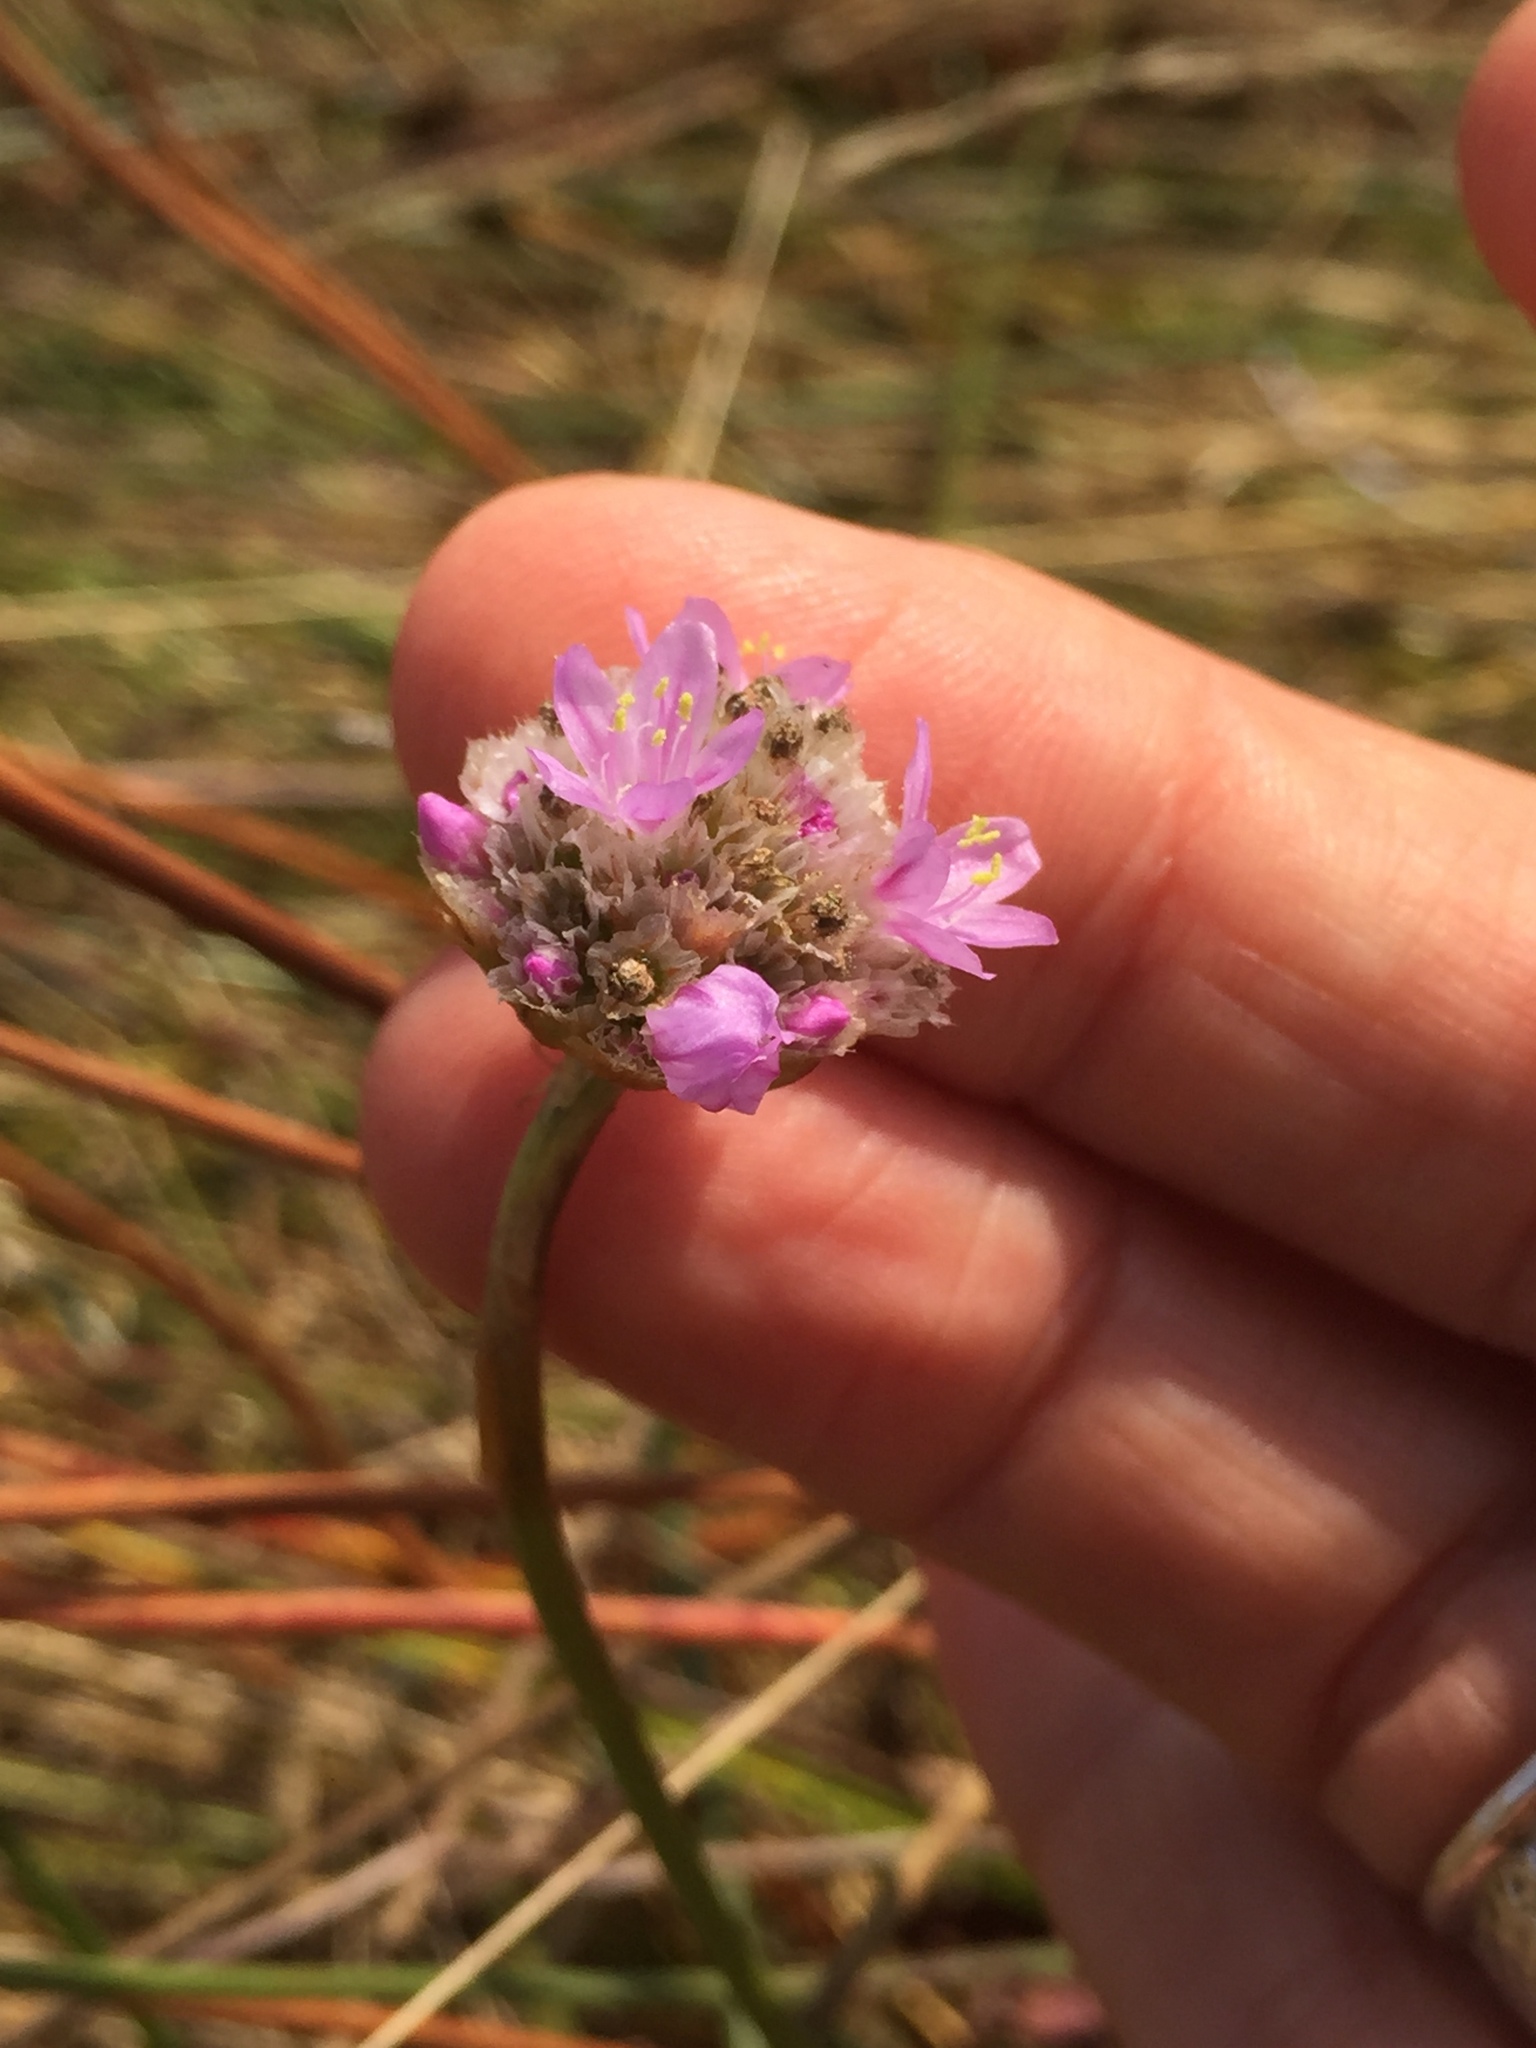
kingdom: Plantae
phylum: Tracheophyta
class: Magnoliopsida
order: Caryophyllales
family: Plumbaginaceae
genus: Armeria
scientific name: Armeria maritima
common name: Thrift
